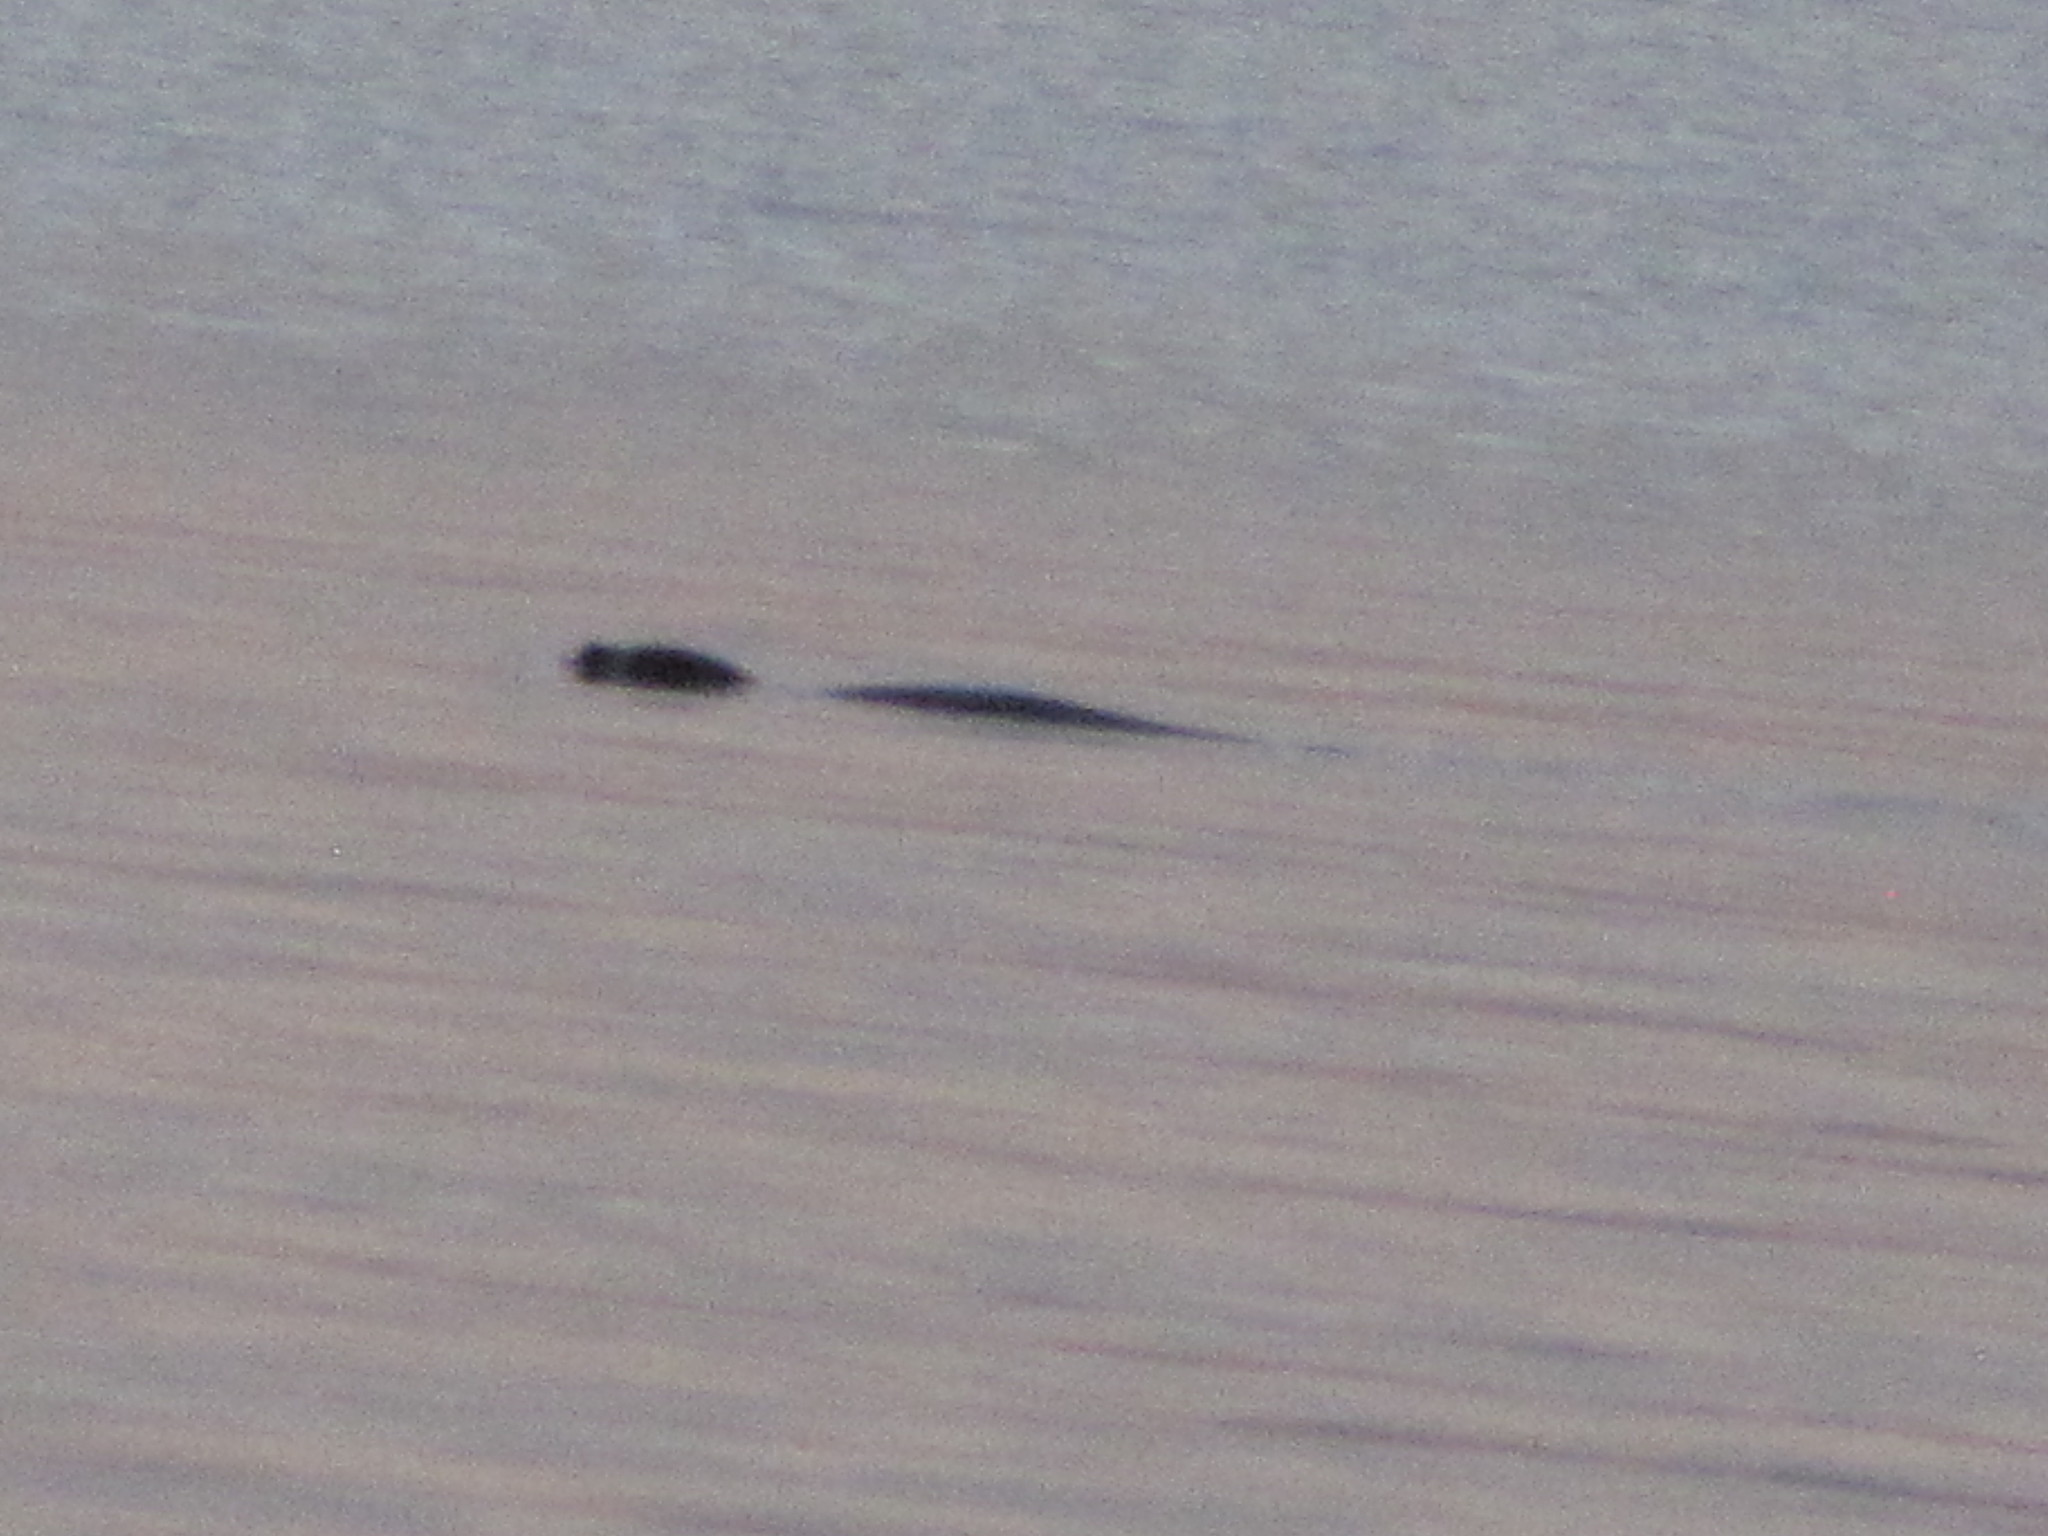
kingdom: Animalia
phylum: Chordata
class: Mammalia
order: Carnivora
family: Phocidae
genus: Phoca
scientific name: Phoca vitulina
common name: Harbor seal
